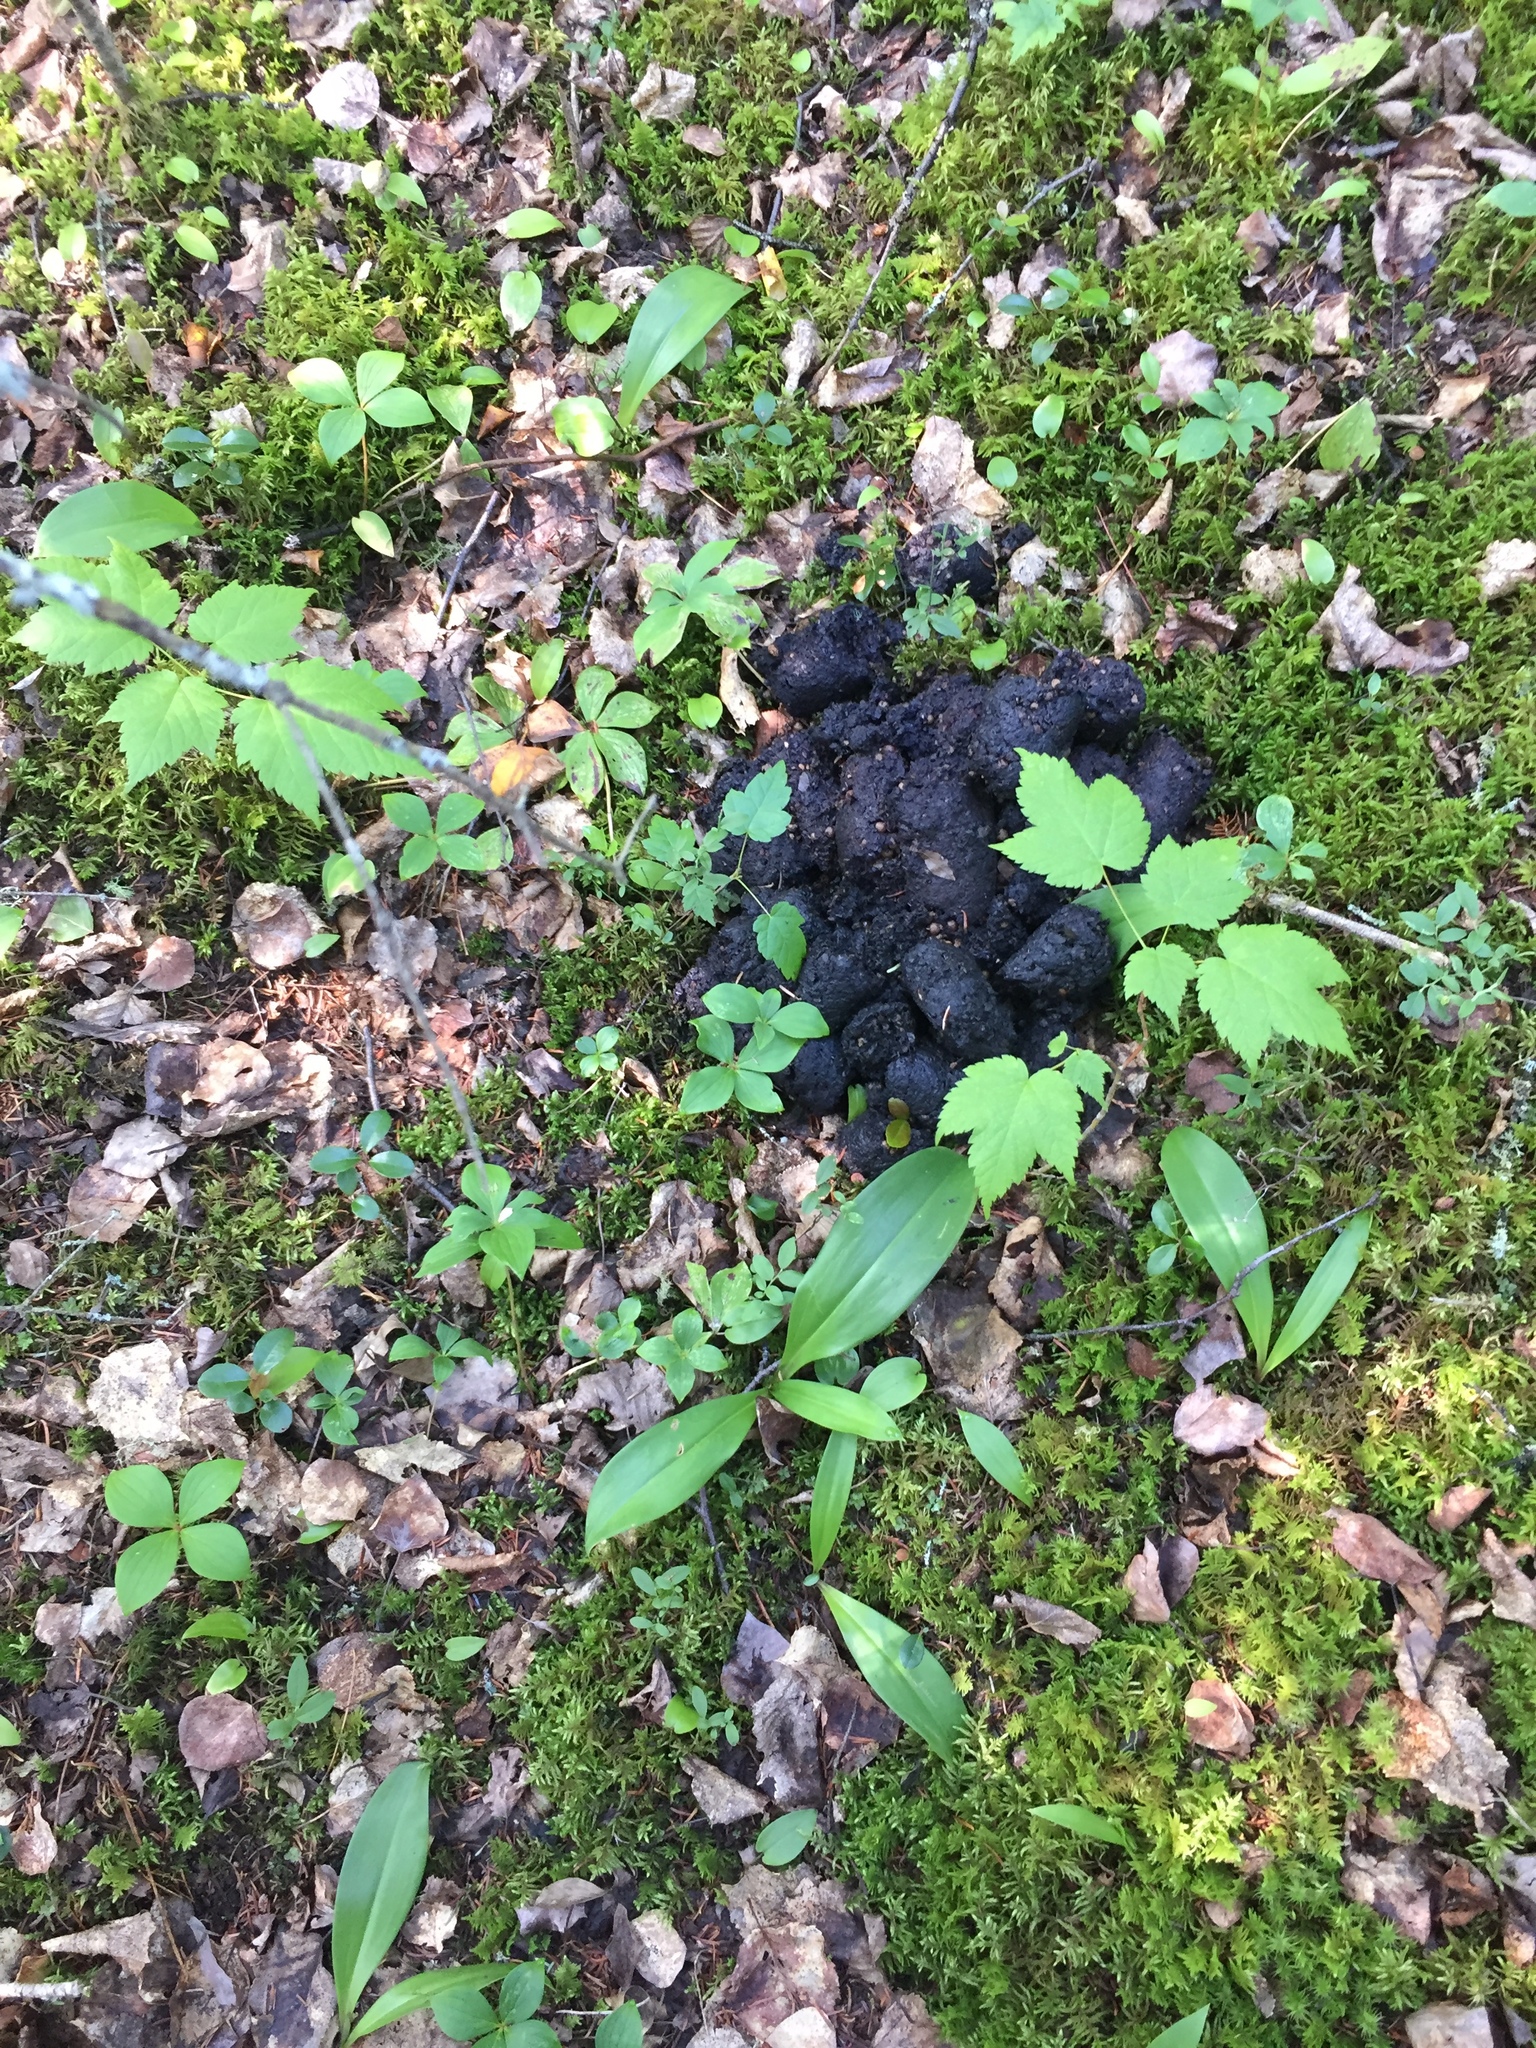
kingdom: Animalia
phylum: Chordata
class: Mammalia
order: Carnivora
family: Ursidae
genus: Ursus
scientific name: Ursus americanus
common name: American black bear
